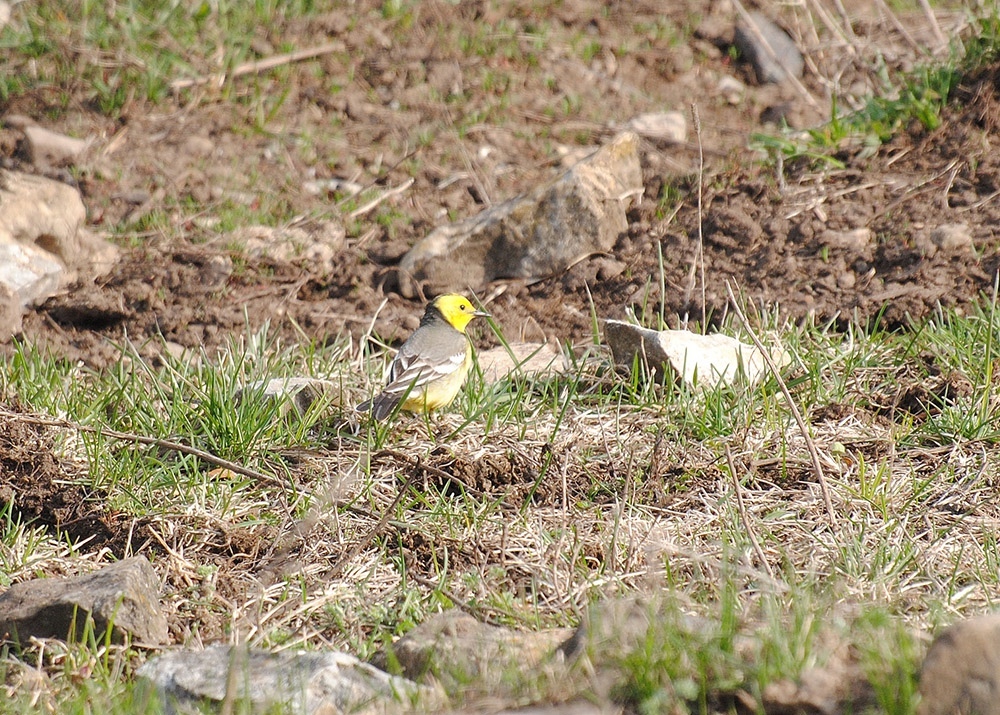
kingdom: Animalia
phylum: Chordata
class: Aves
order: Passeriformes
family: Motacillidae
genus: Motacilla
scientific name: Motacilla citreola
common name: Citrine wagtail
